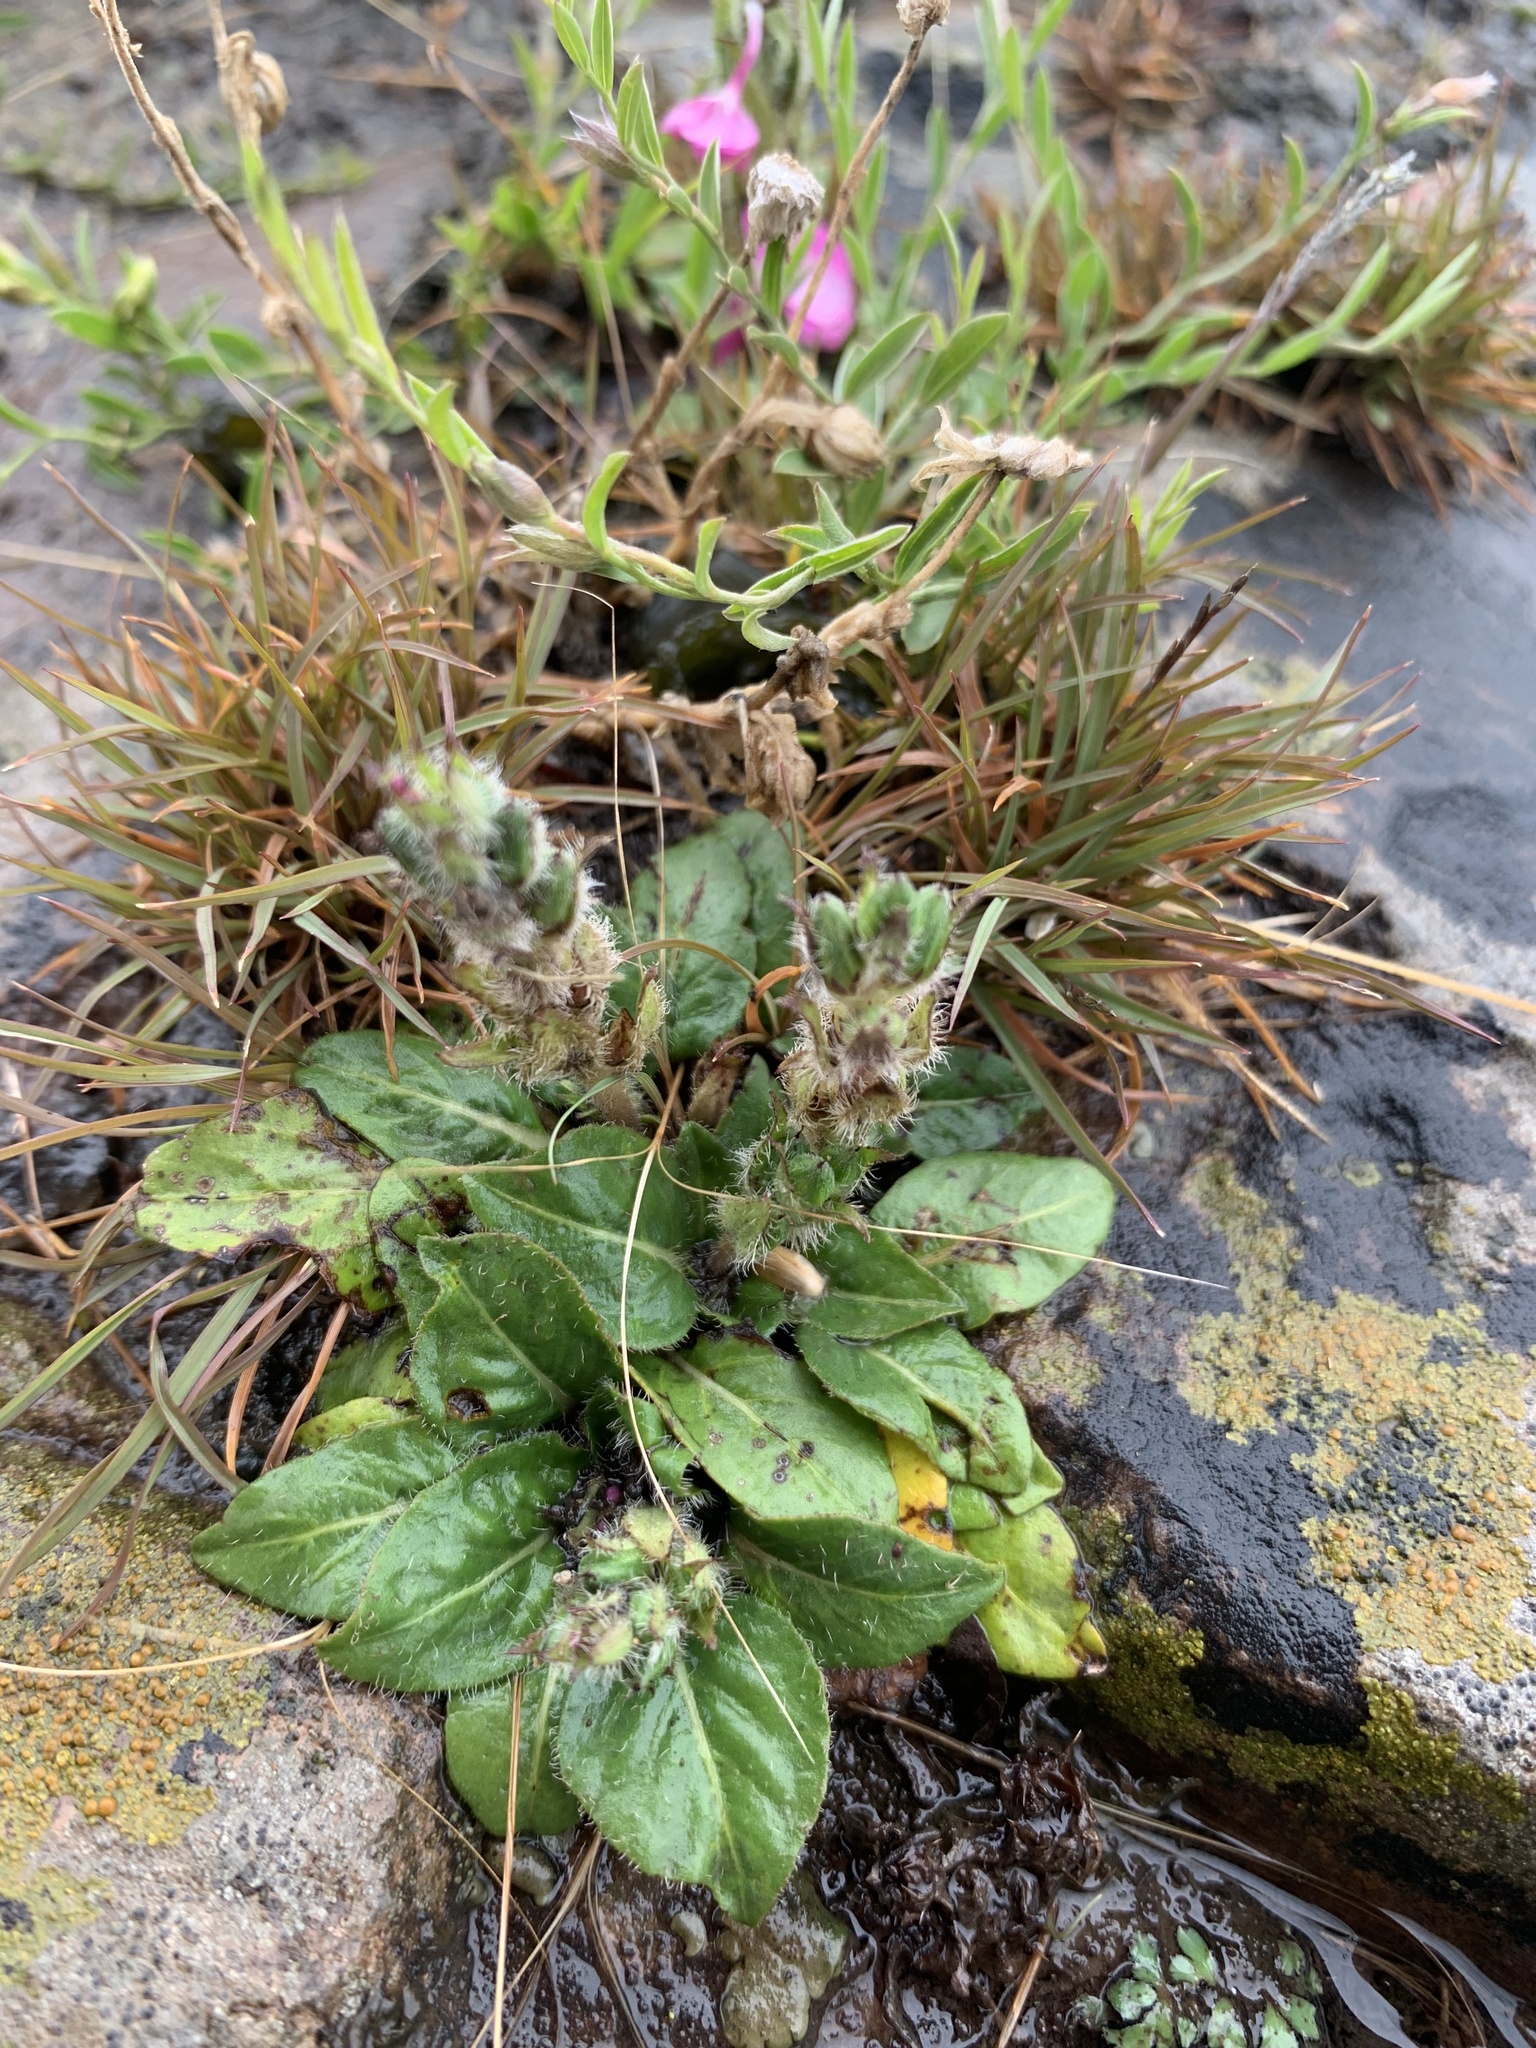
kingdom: Plantae
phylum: Tracheophyta
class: Magnoliopsida
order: Lamiales
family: Acanthaceae
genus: Stenandrium
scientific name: Stenandrium dulce
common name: Pinklet
